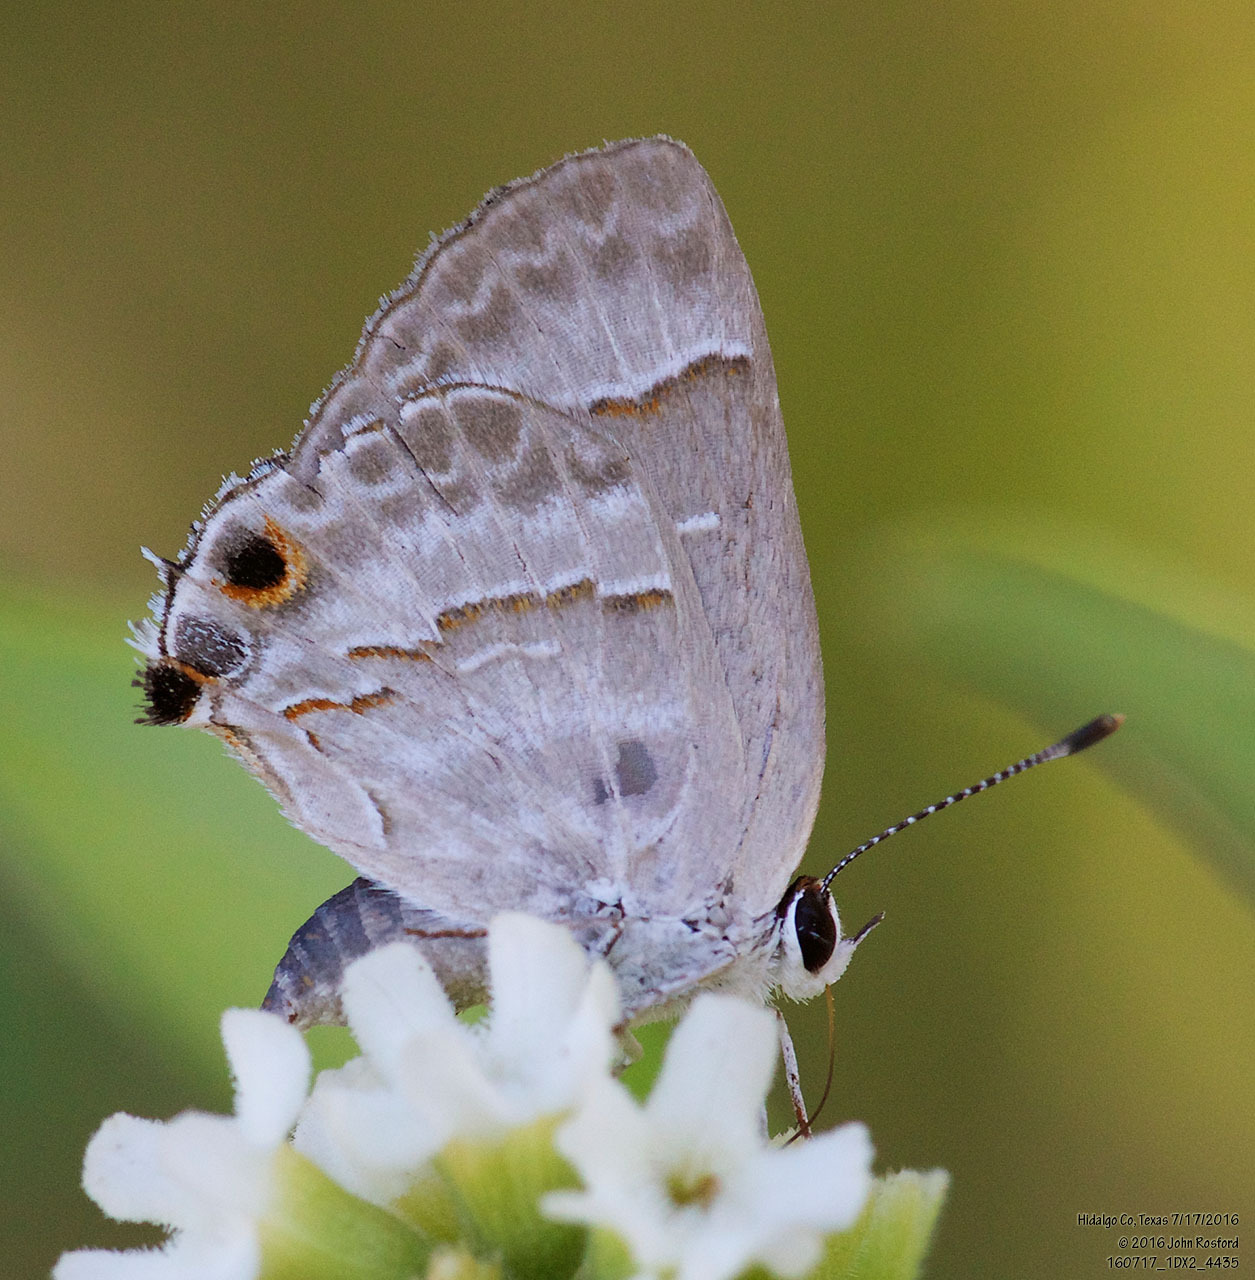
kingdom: Animalia
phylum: Arthropoda
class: Insecta
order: Lepidoptera
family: Lycaenidae
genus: Thecla
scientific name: Thecla yojoa
